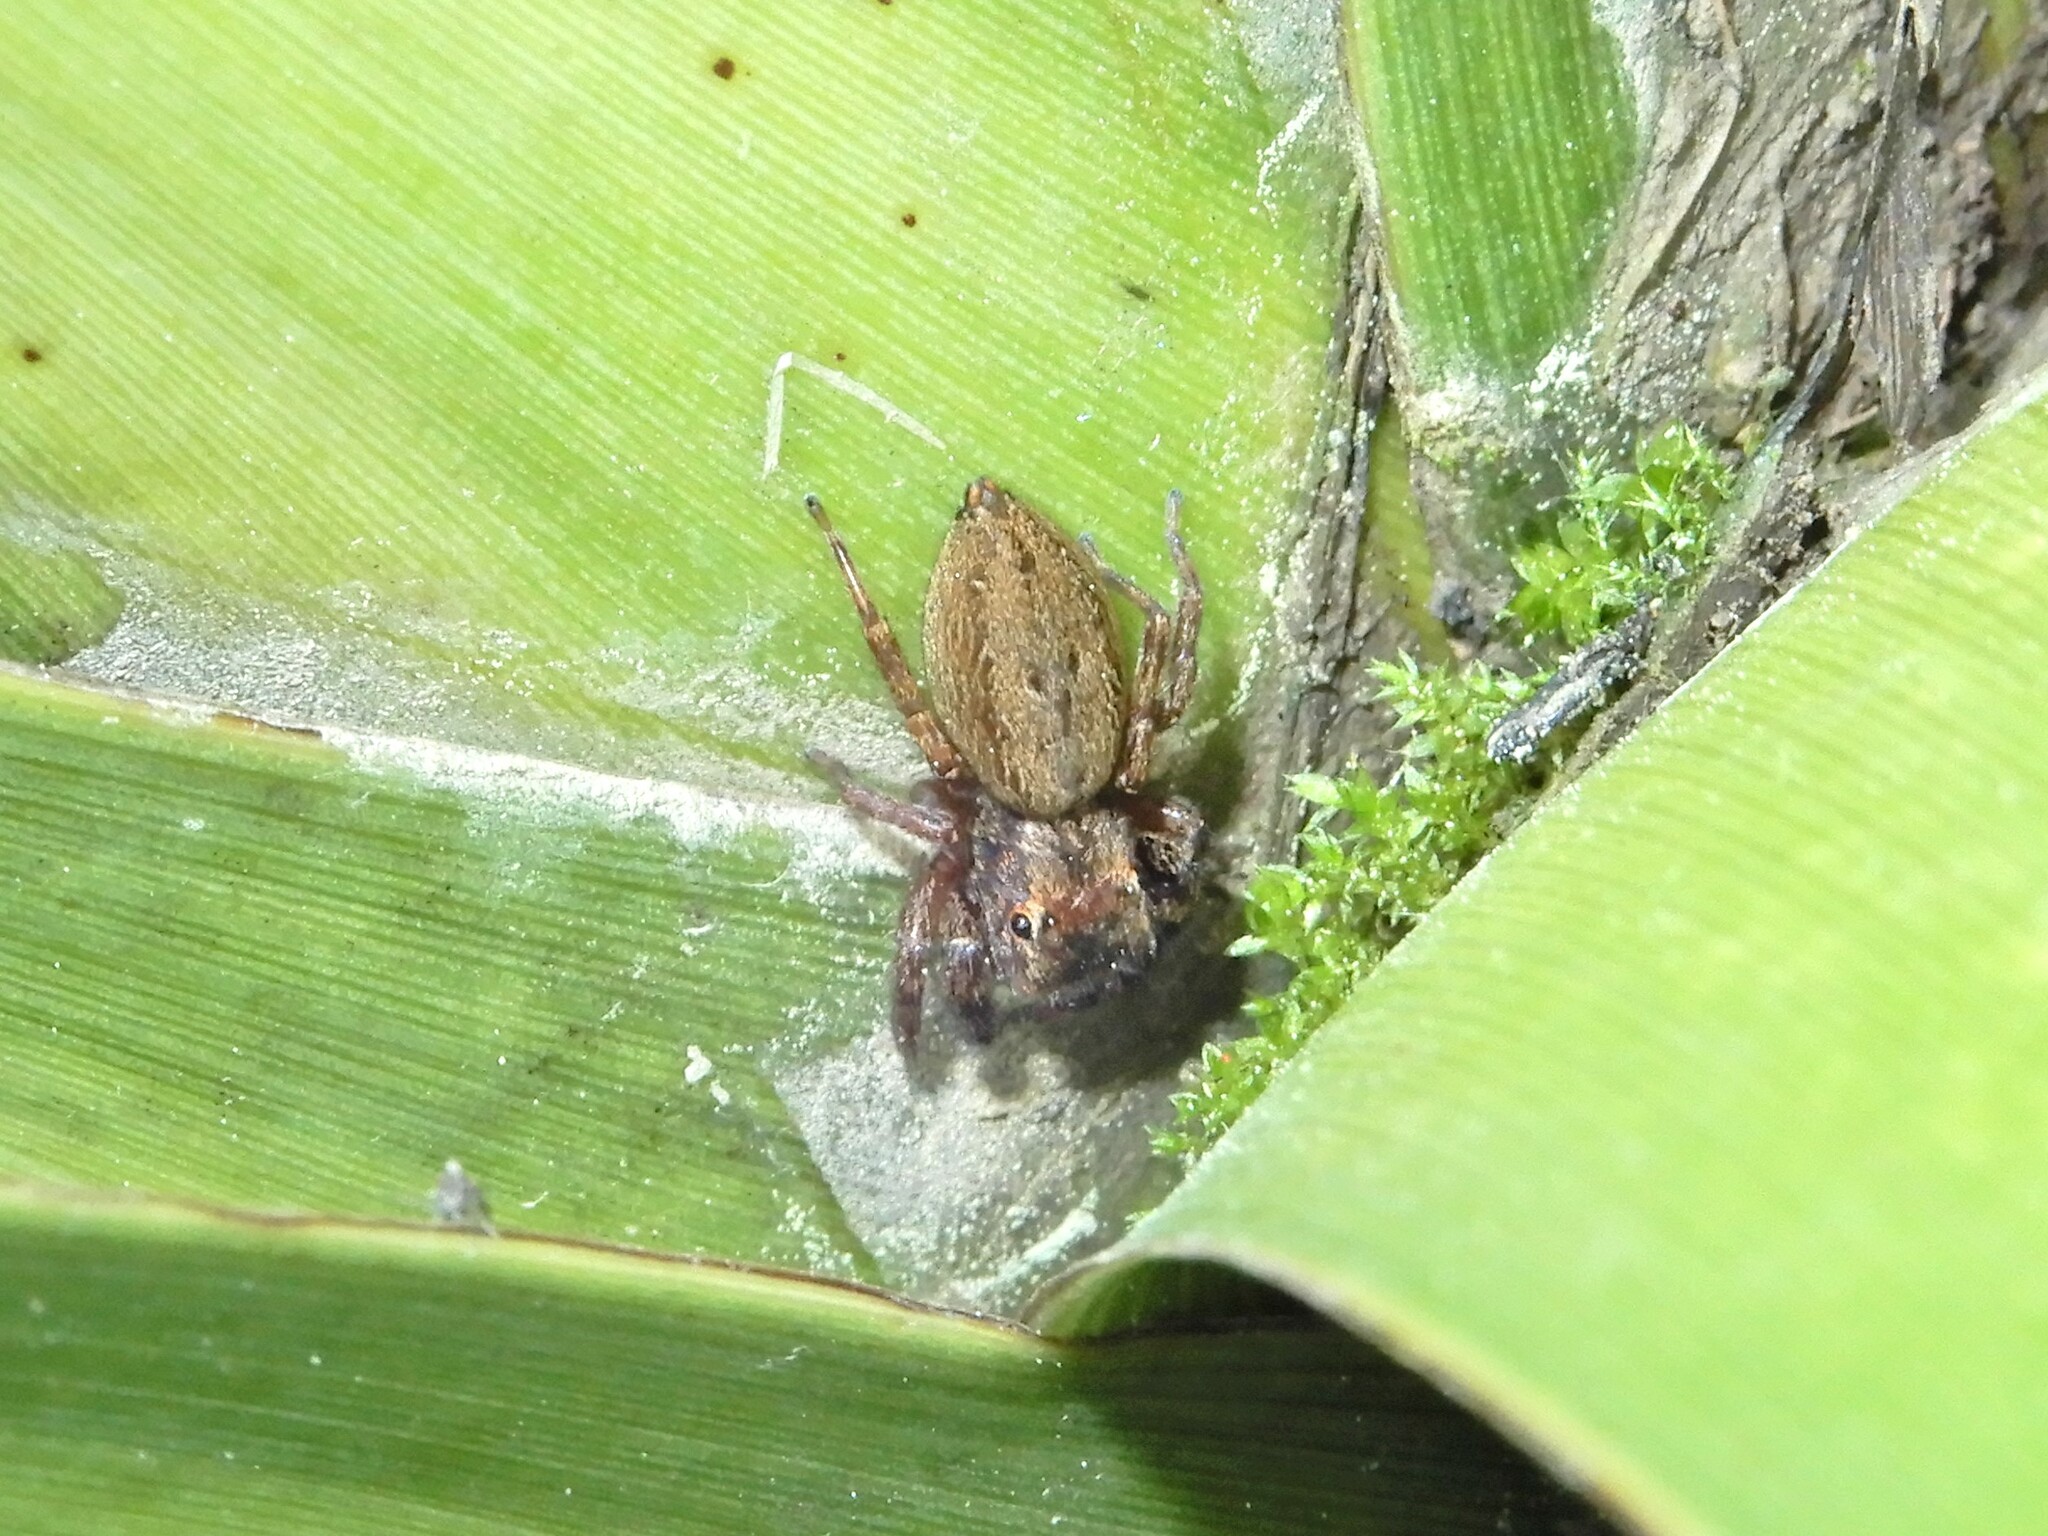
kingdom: Animalia
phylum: Arthropoda
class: Arachnida
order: Araneae
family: Salticidae
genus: Trite
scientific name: Trite auricoma
